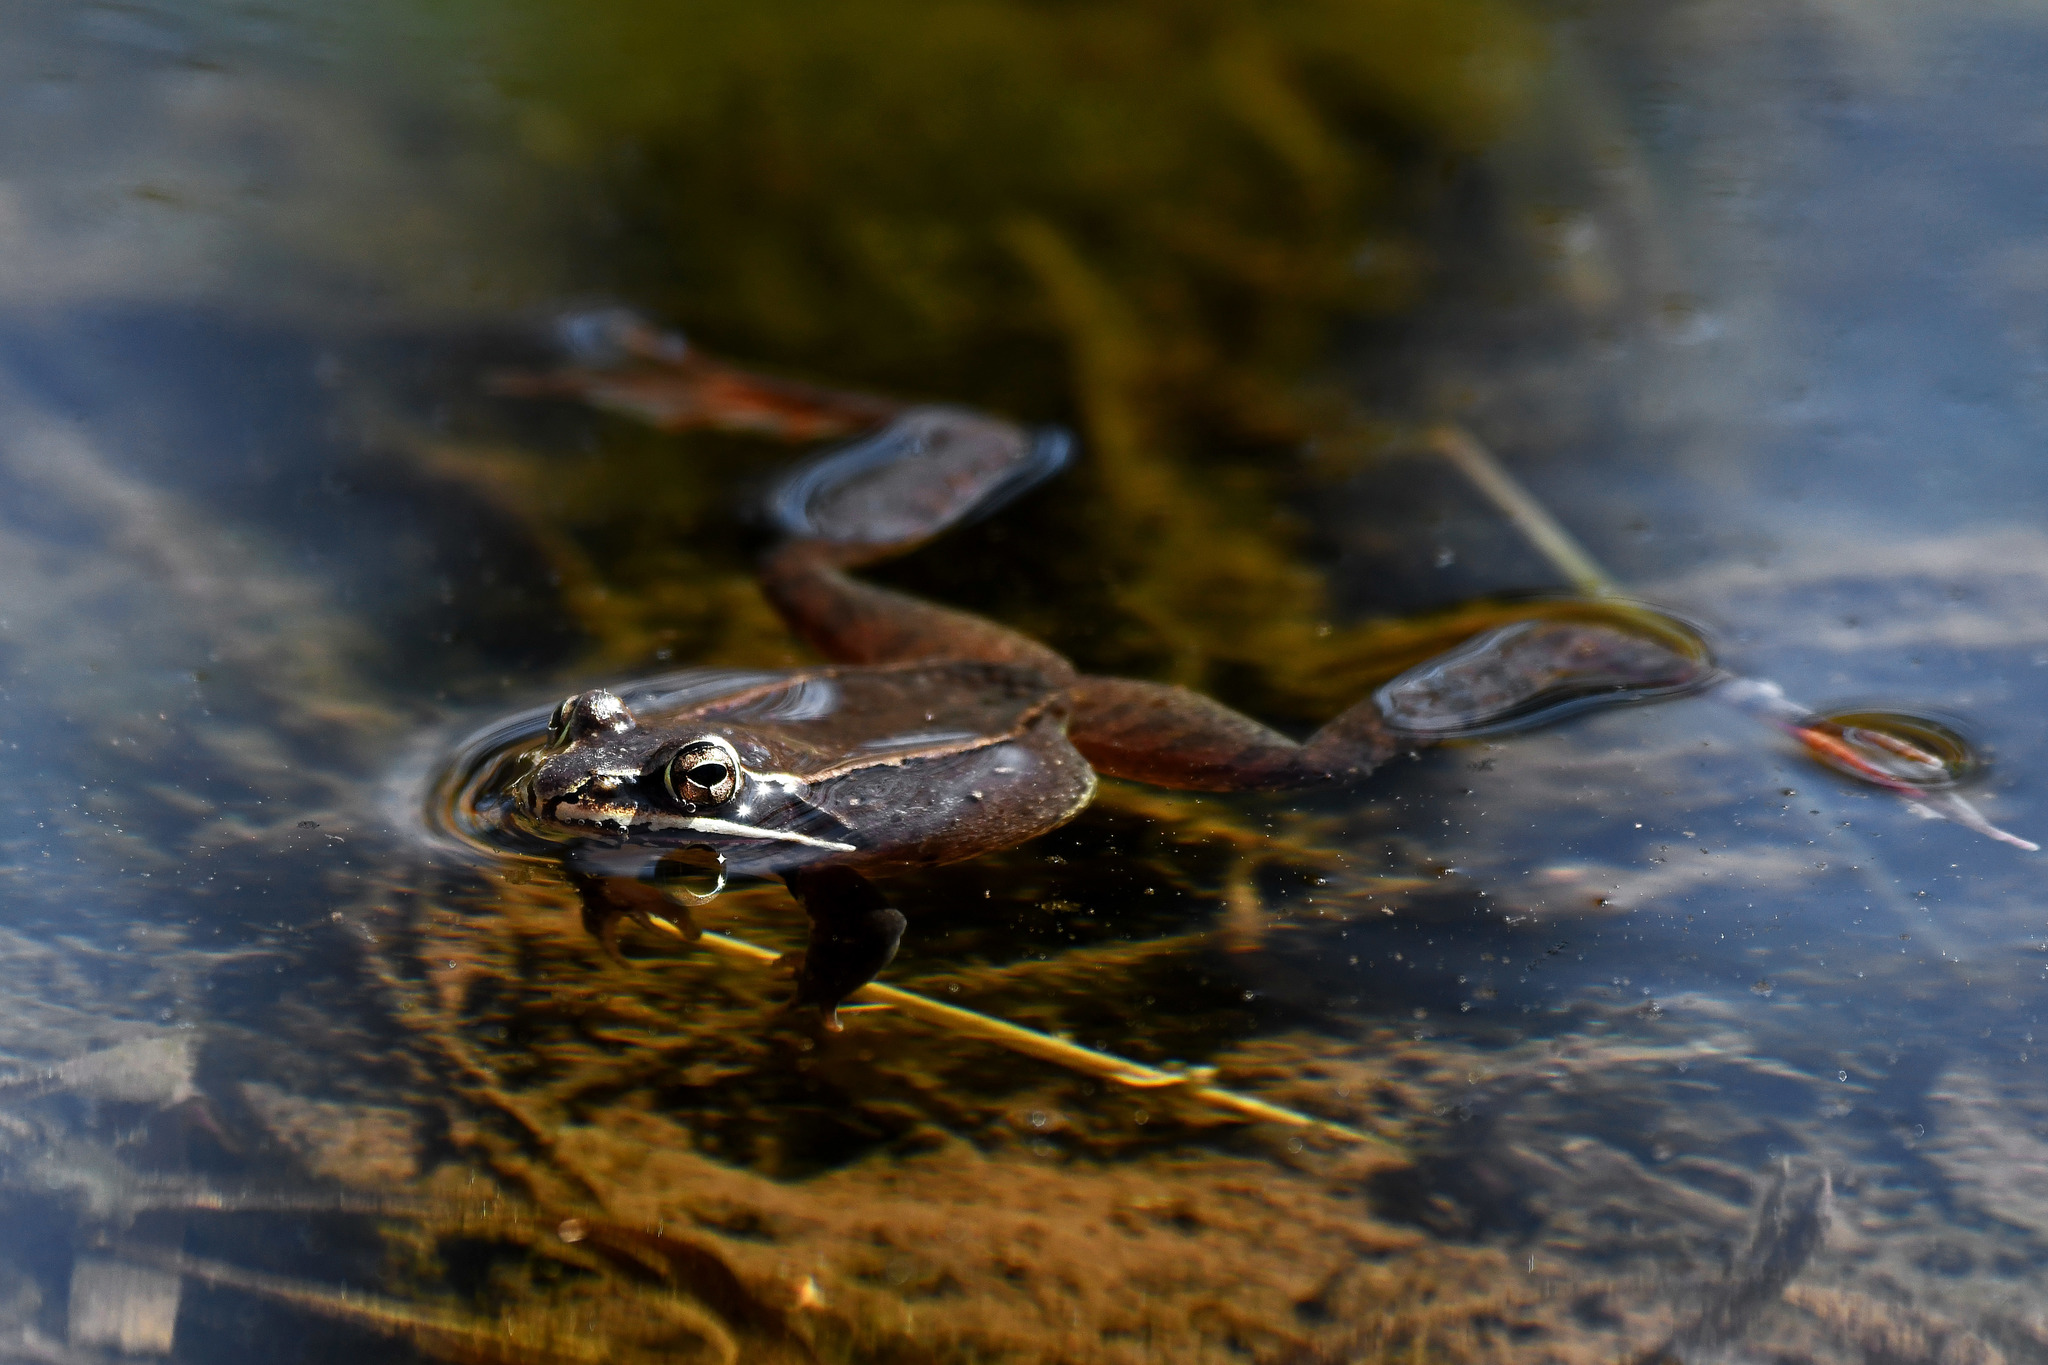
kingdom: Animalia
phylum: Chordata
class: Amphibia
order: Anura
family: Ranidae
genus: Lithobates
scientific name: Lithobates sylvaticus
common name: Wood frog
